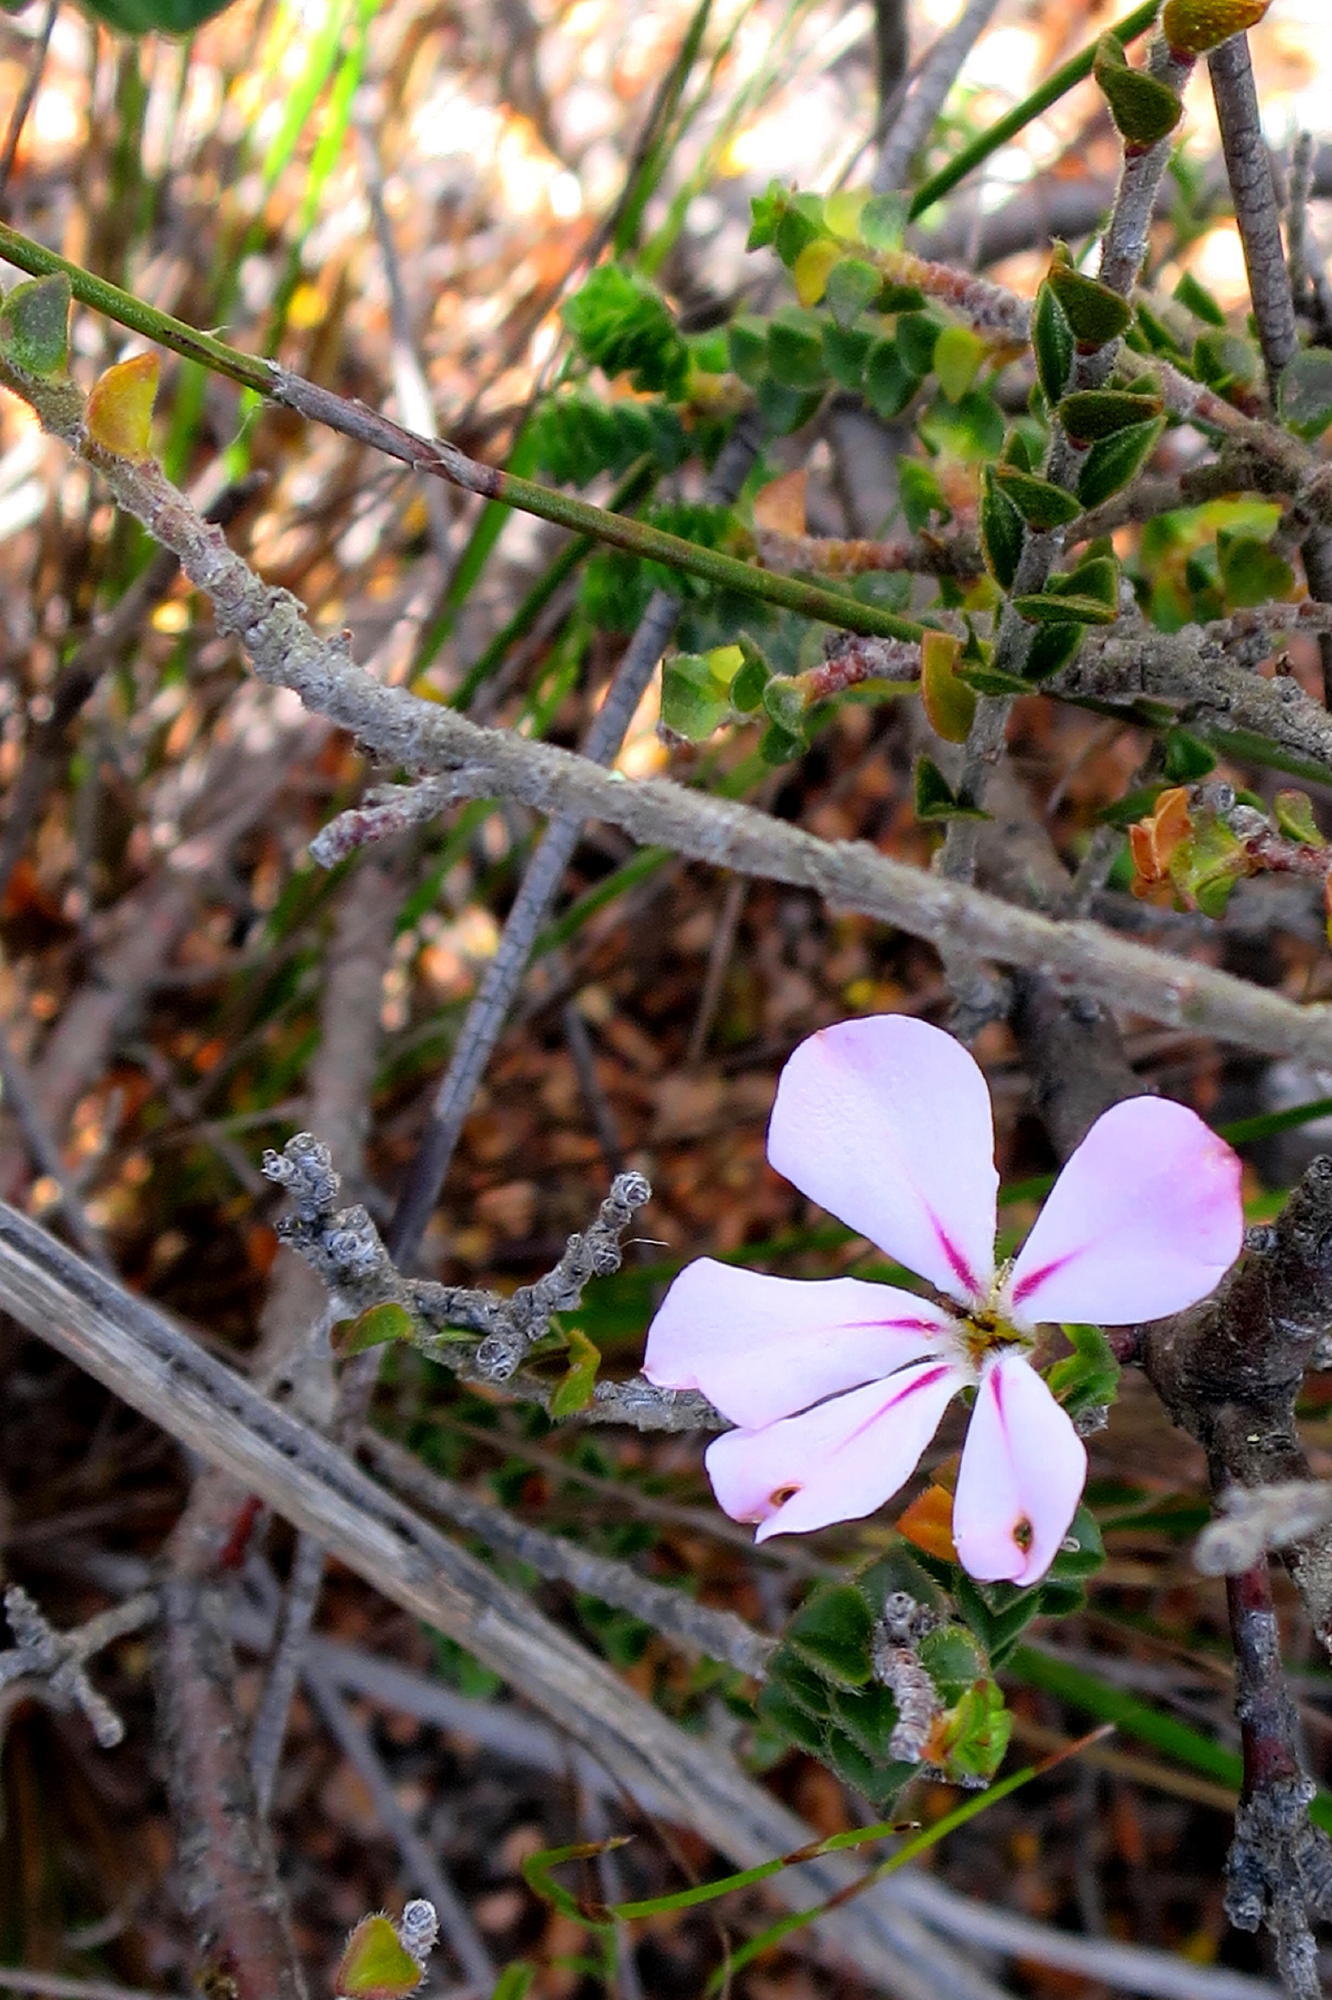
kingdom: Plantae
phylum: Tracheophyta
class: Magnoliopsida
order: Sapindales
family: Rutaceae
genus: Acmadenia
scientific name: Acmadenia tetragona
